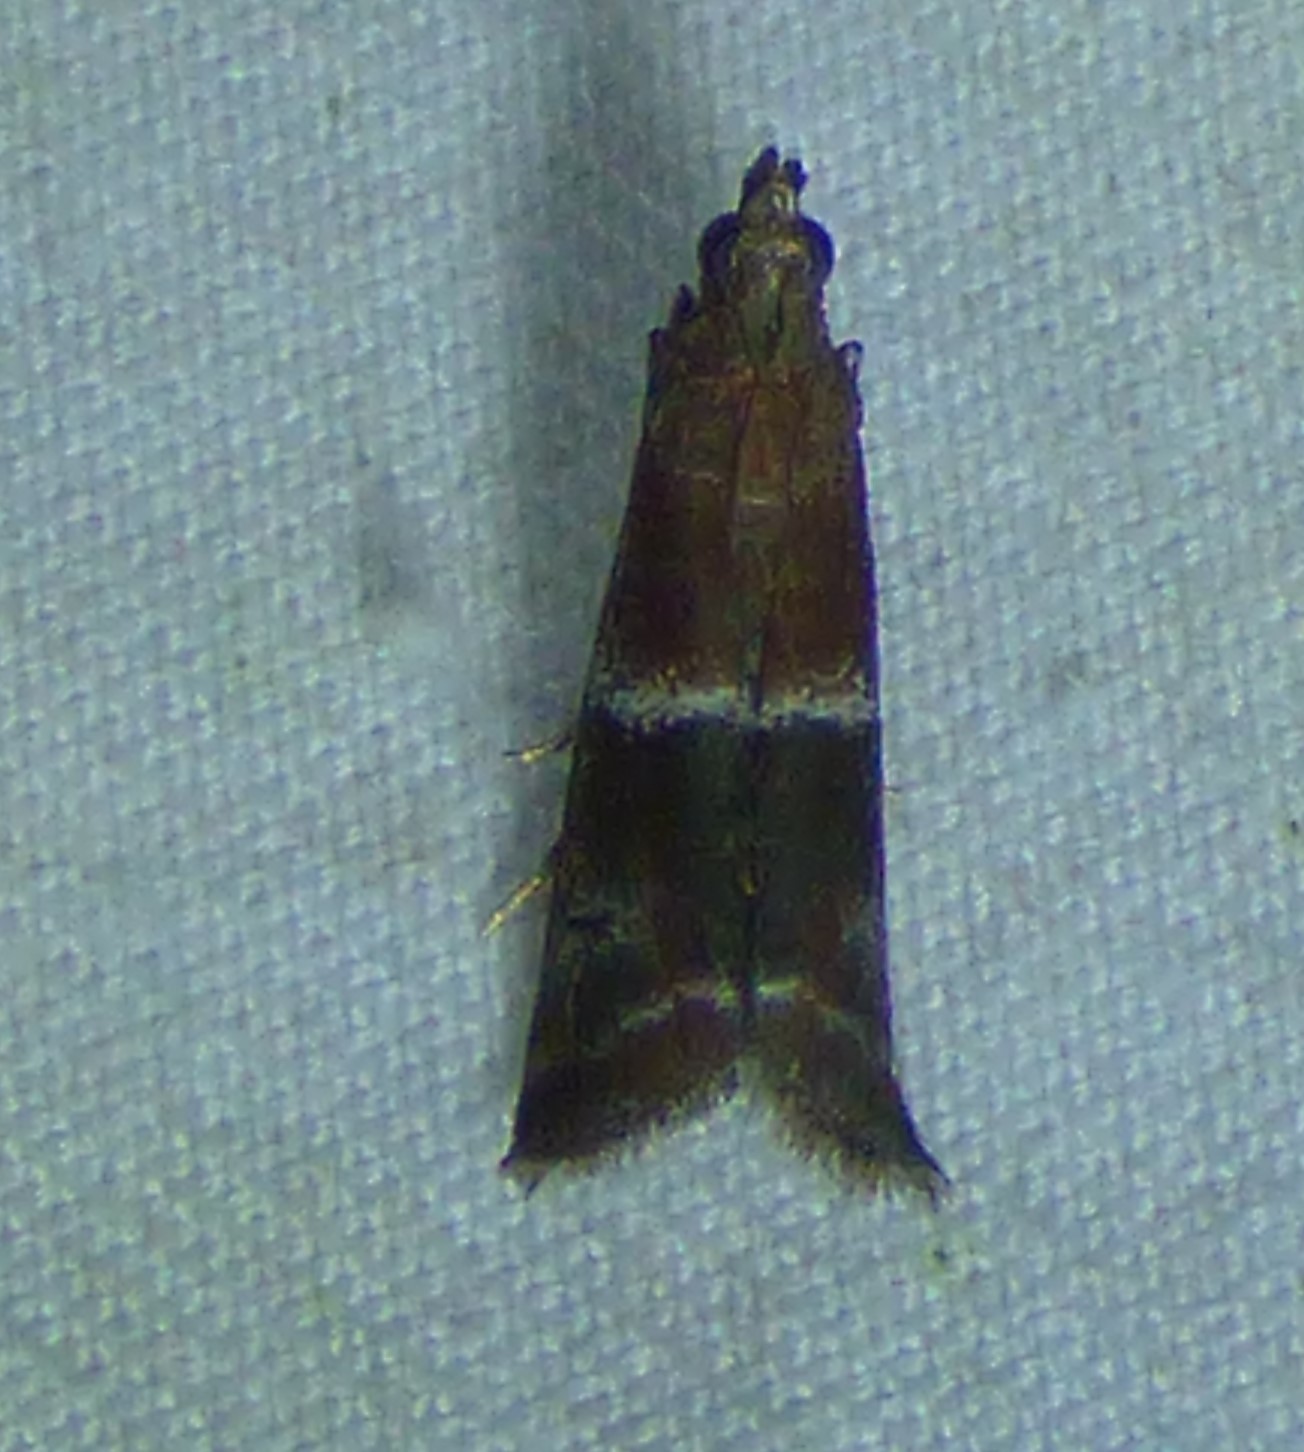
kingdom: Animalia
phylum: Arthropoda
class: Insecta
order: Lepidoptera
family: Pyralidae
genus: Moodna
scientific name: Moodna ostrinella
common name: Darker moodna moth
